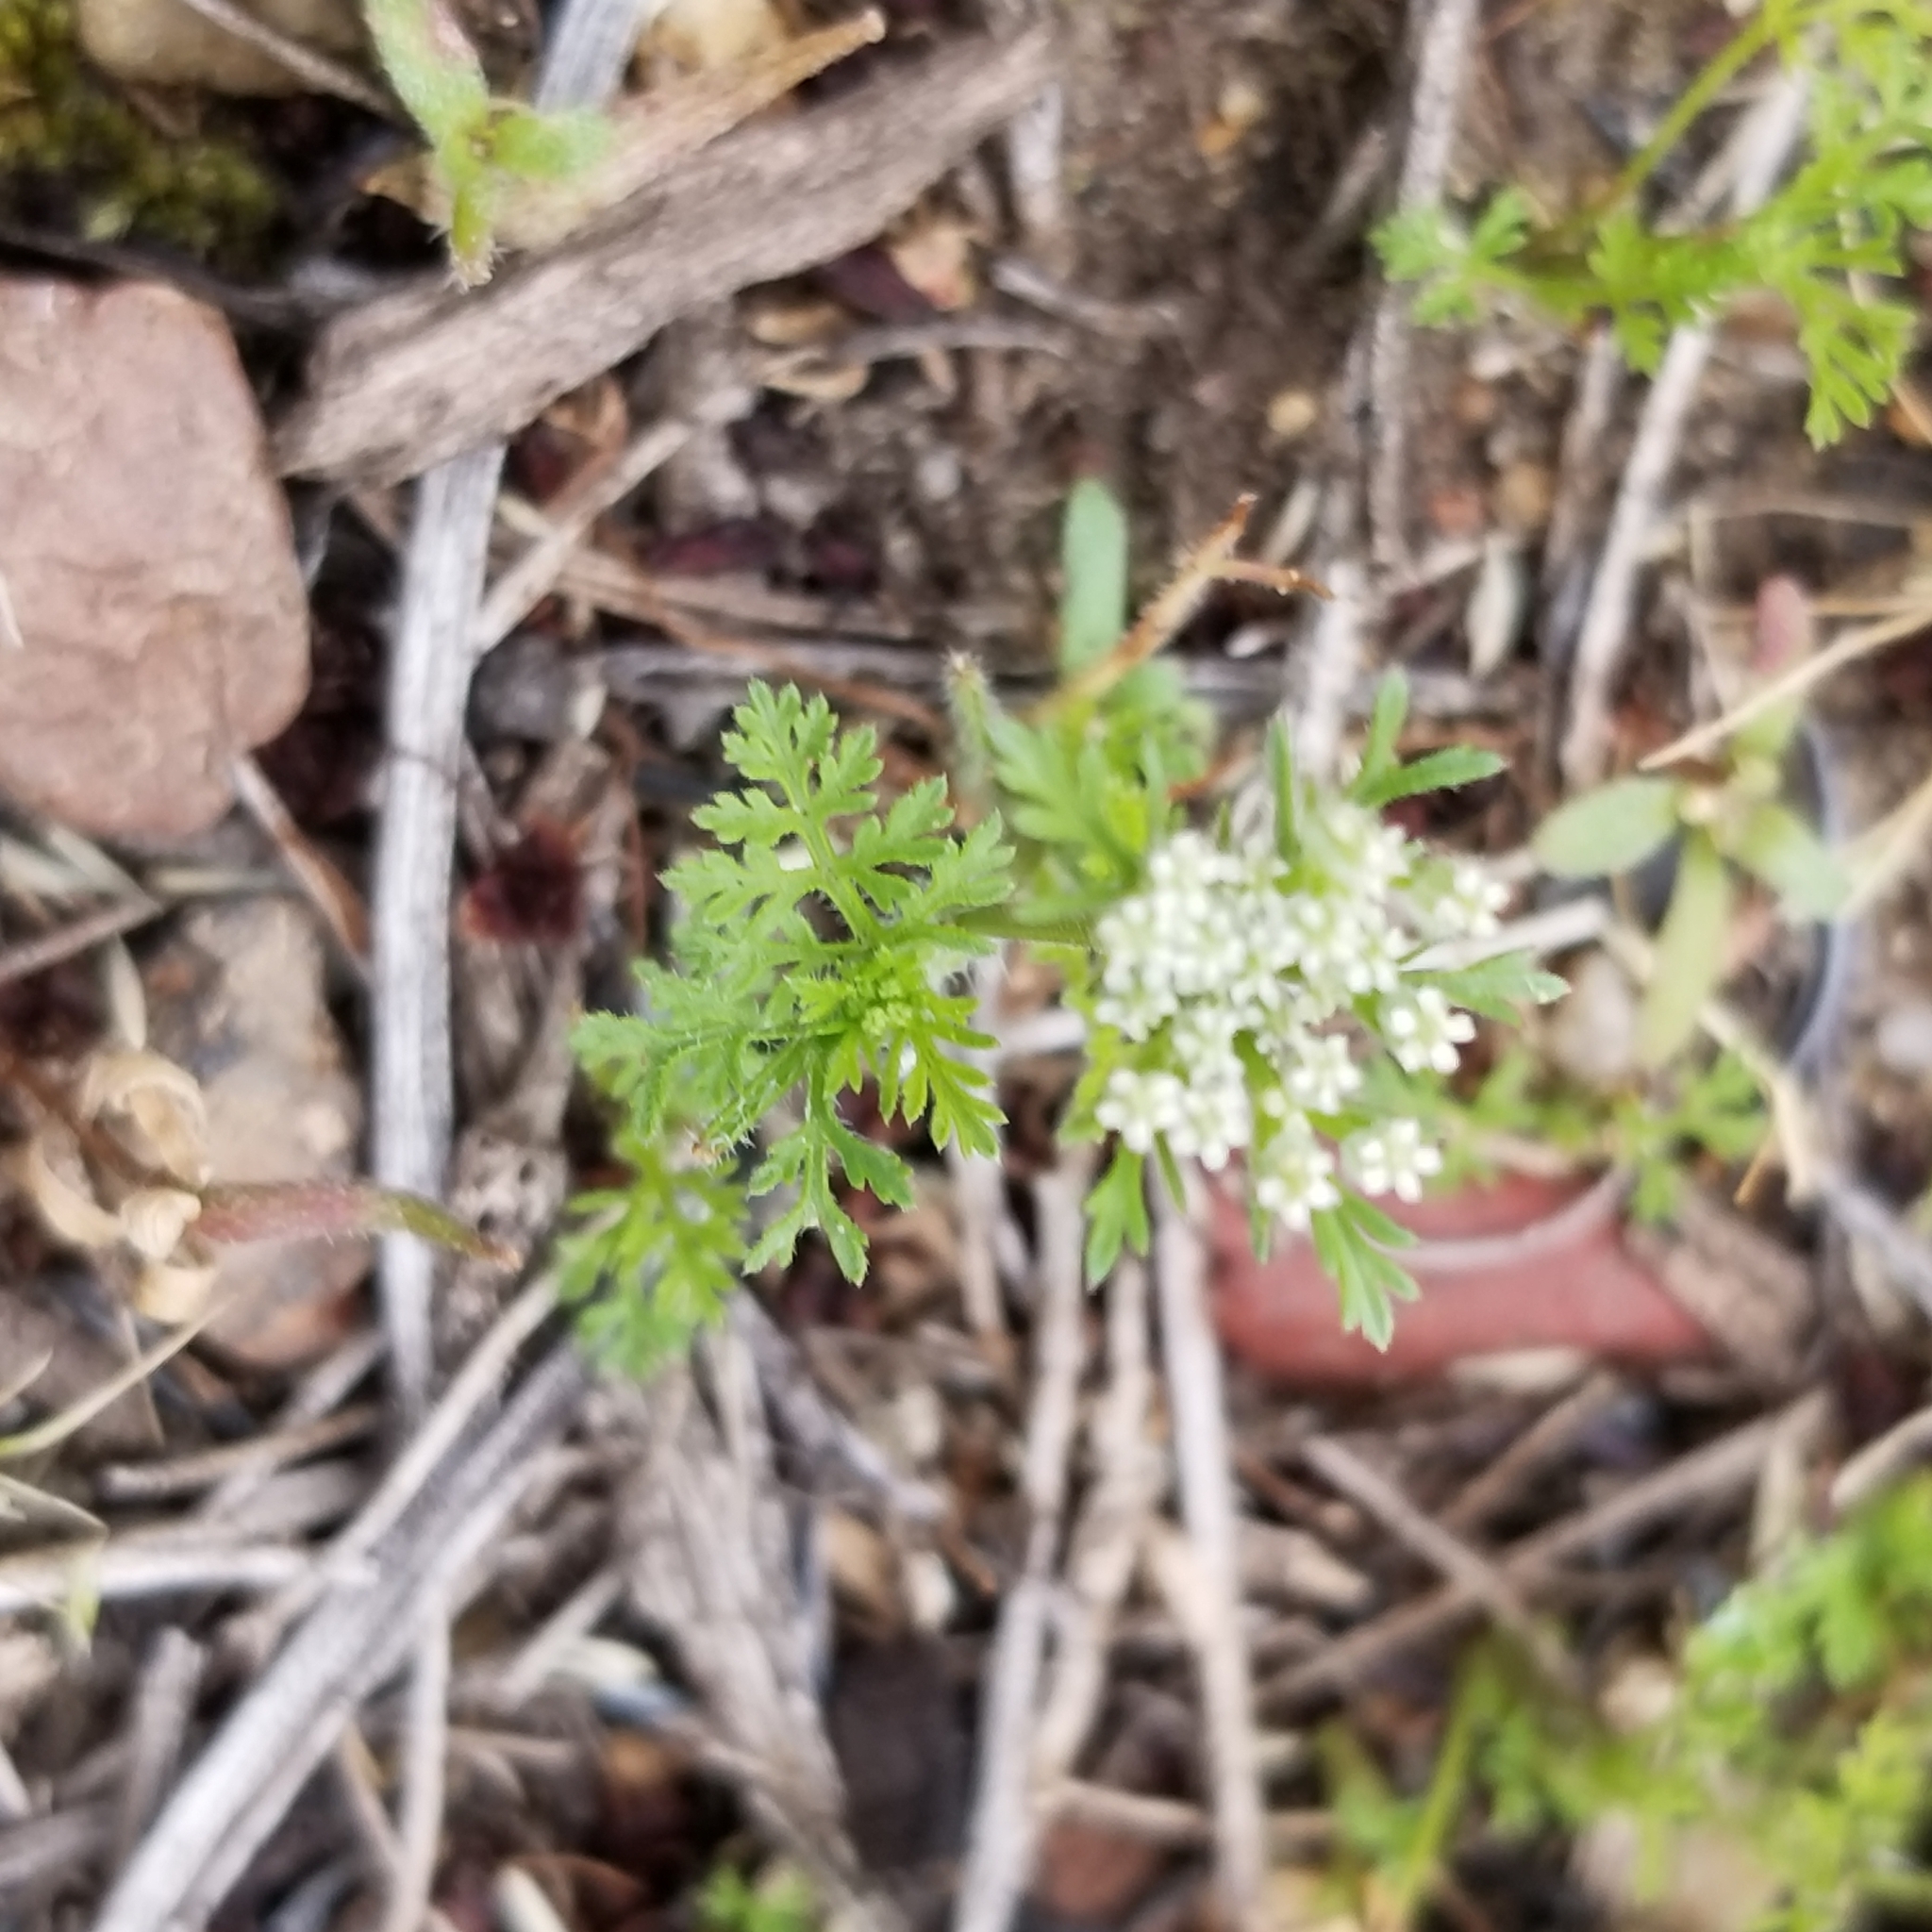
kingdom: Plantae
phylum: Tracheophyta
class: Magnoliopsida
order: Apiales
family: Apiaceae
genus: Daucus
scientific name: Daucus pusillus
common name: Southwest wild carrot
